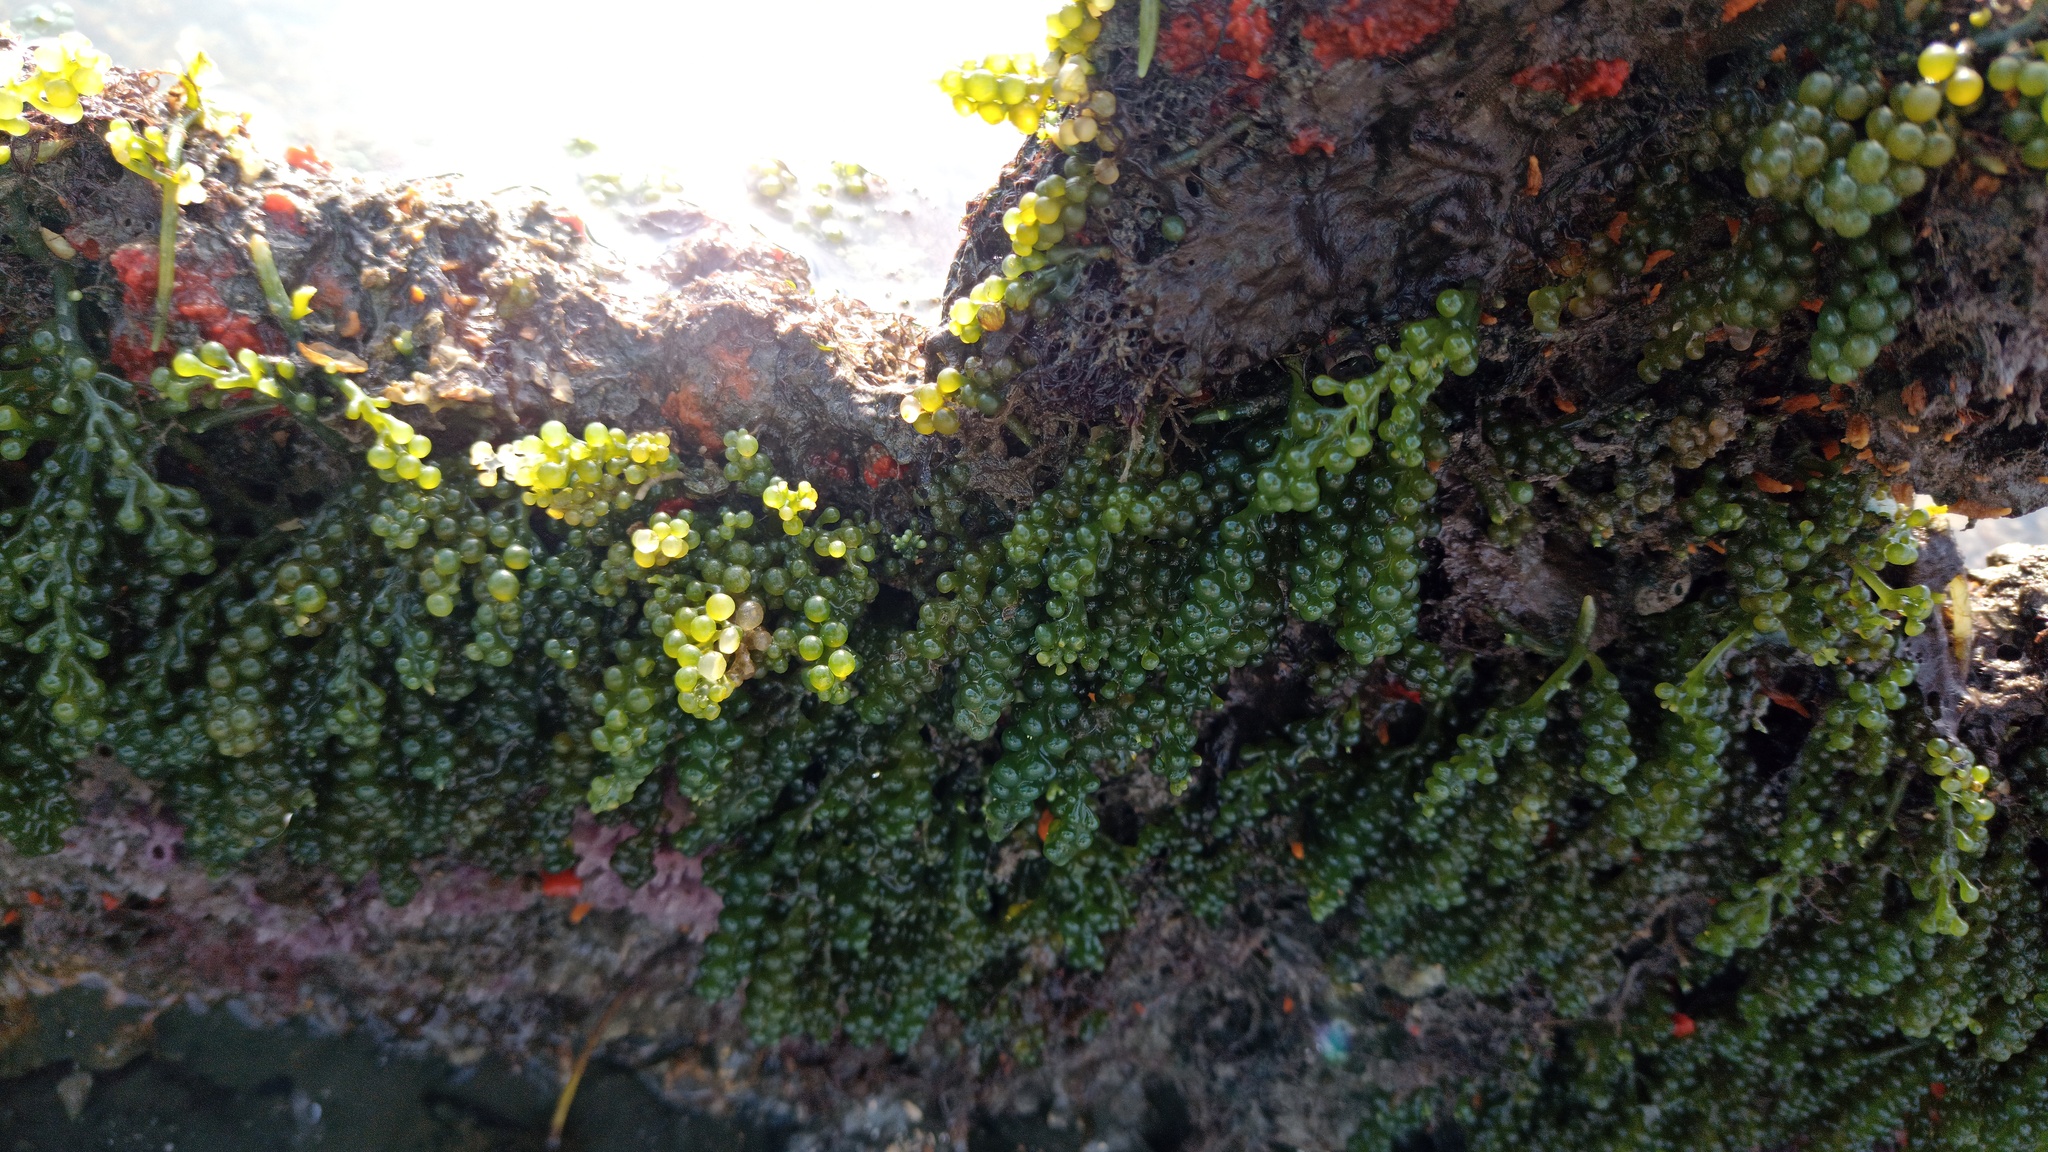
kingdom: Plantae
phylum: Chlorophyta
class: Ulvophyceae
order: Bryopsidales
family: Caulerpaceae
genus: Caulerpa
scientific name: Caulerpa racemosa
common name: Green grape algae
